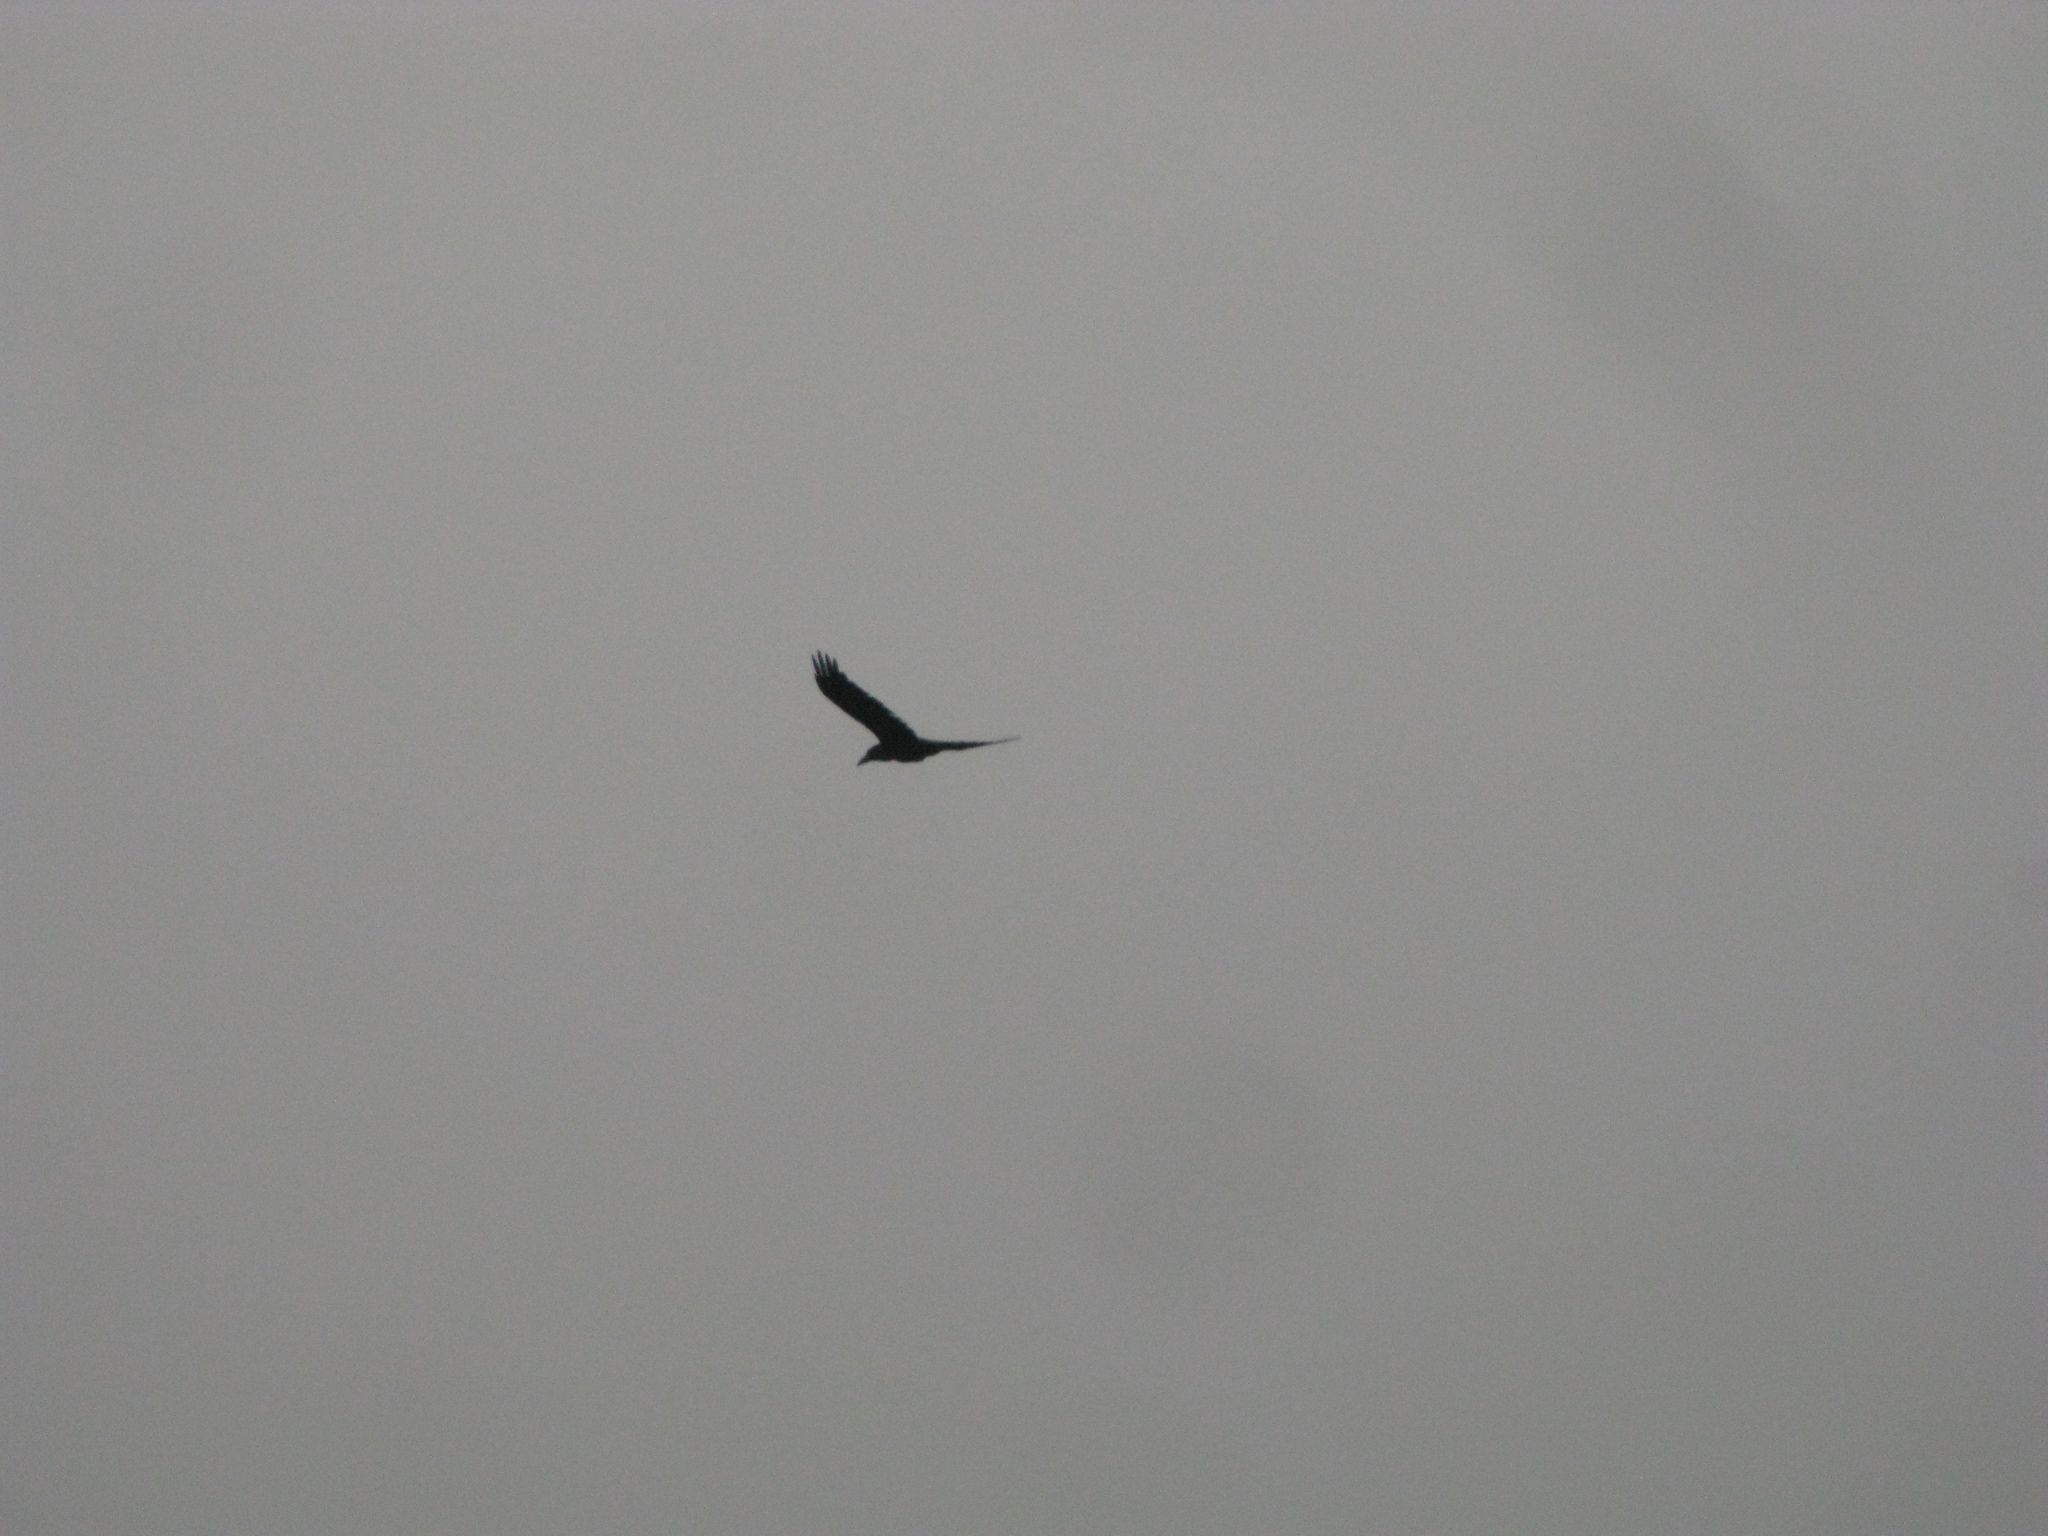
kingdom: Animalia
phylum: Chordata
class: Aves
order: Passeriformes
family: Corvidae
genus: Corvus
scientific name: Corvus corax
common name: Common raven
